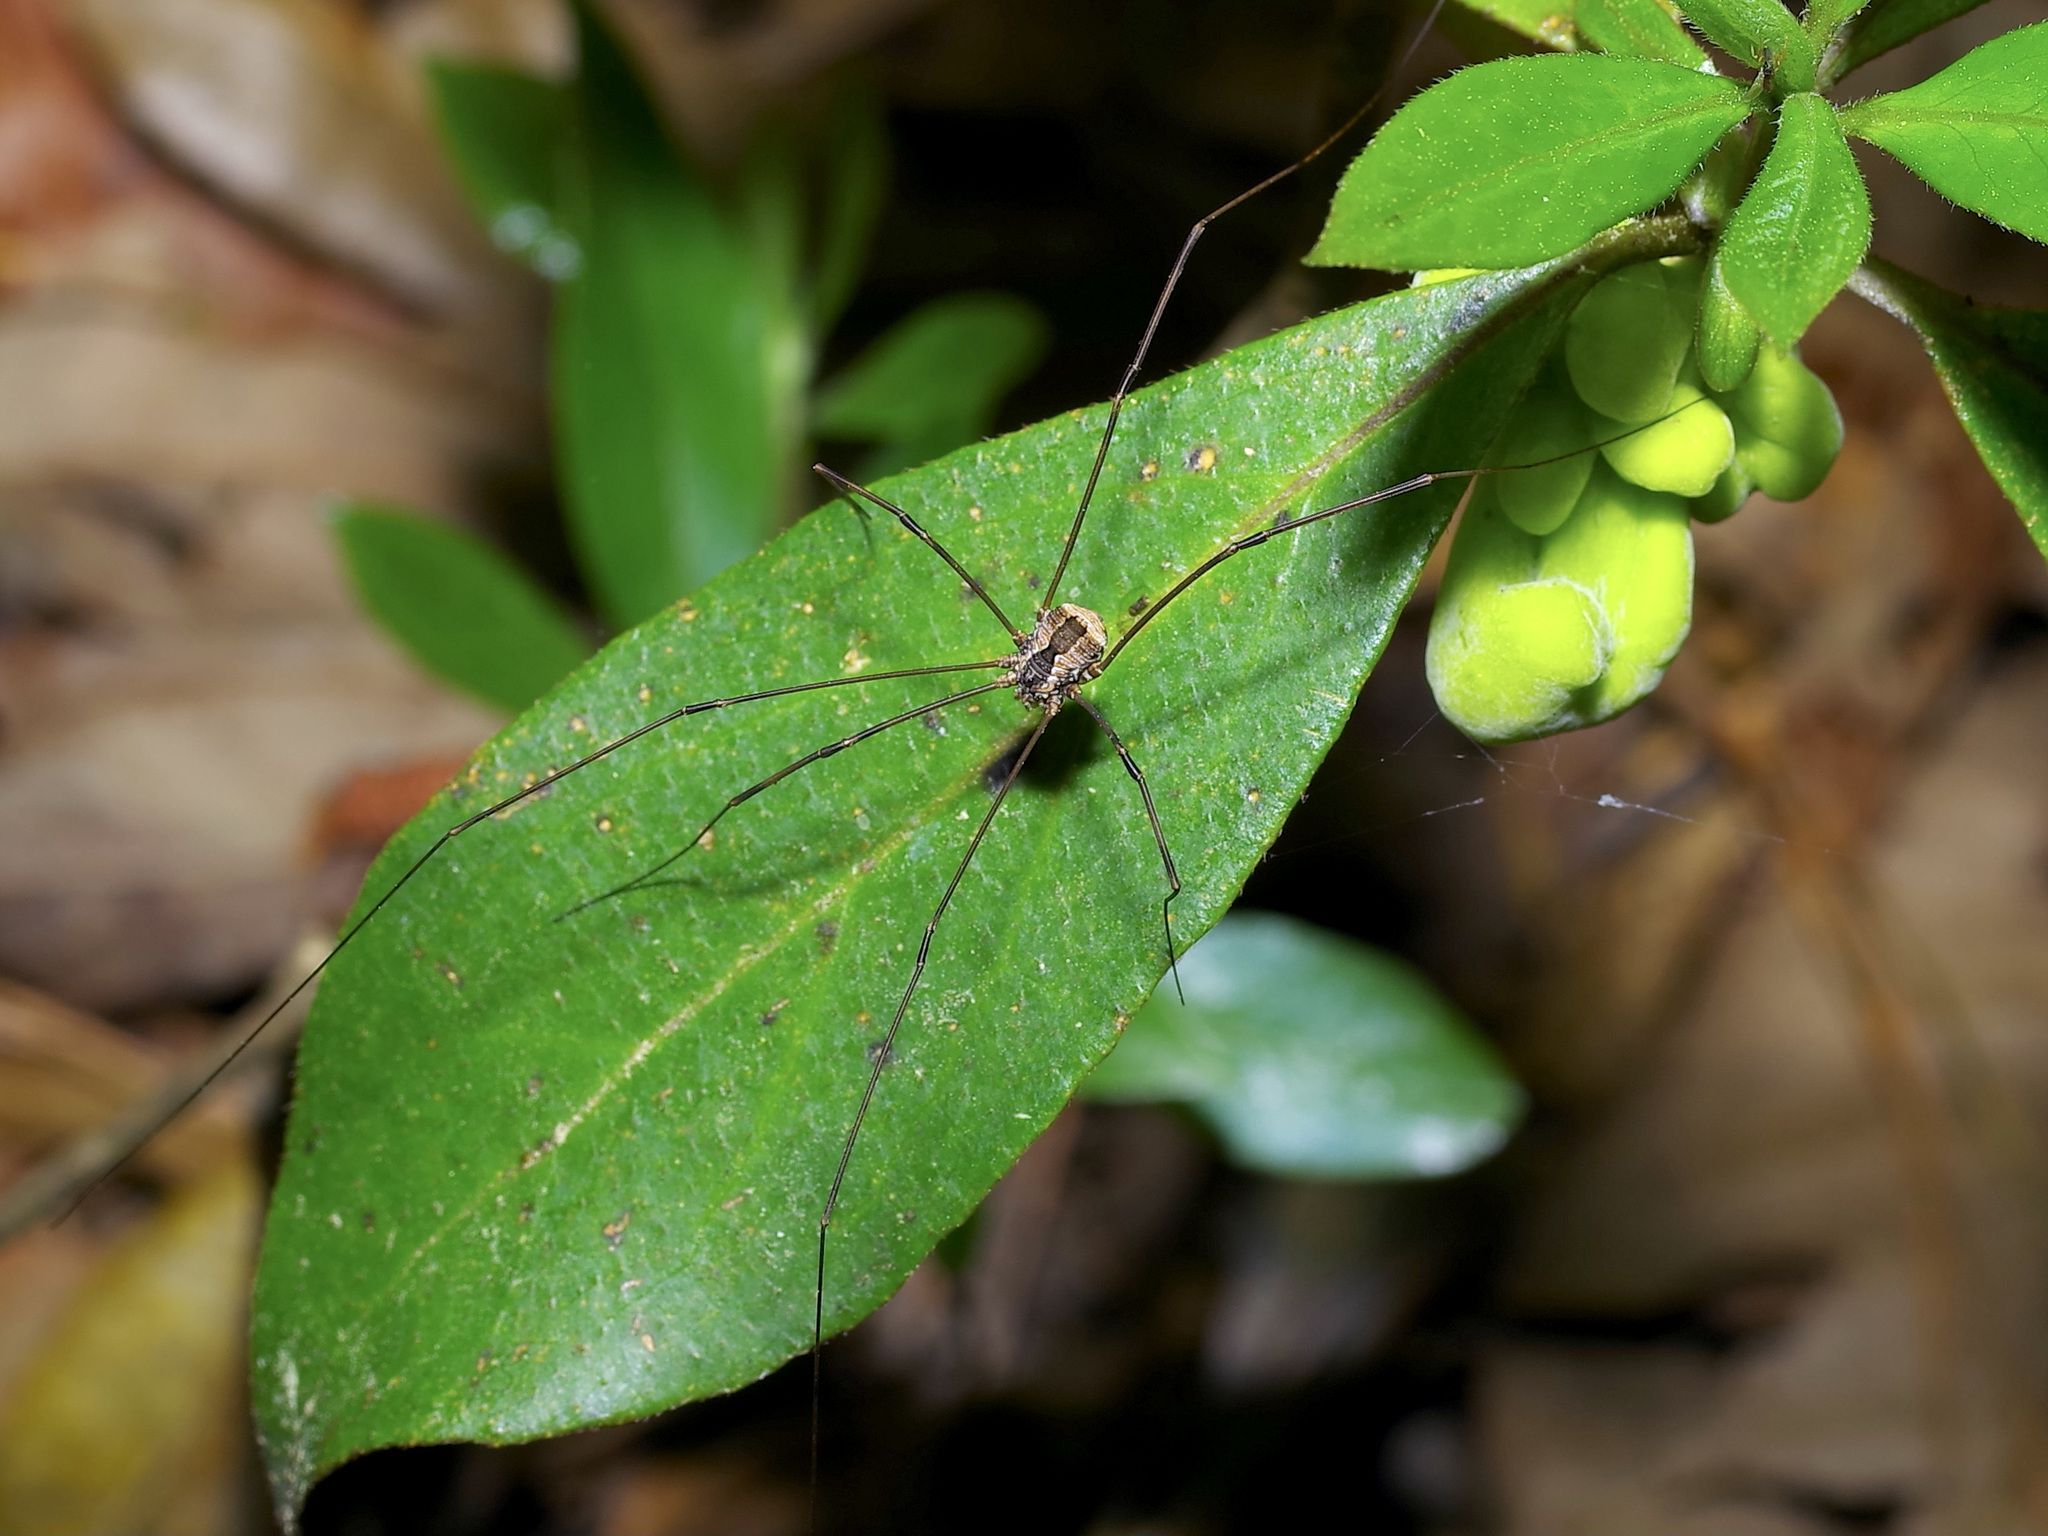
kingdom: Animalia
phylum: Arthropoda
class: Arachnida
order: Opiliones
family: Sclerosomatidae
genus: Leiobunum
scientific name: Leiobunum flavum
